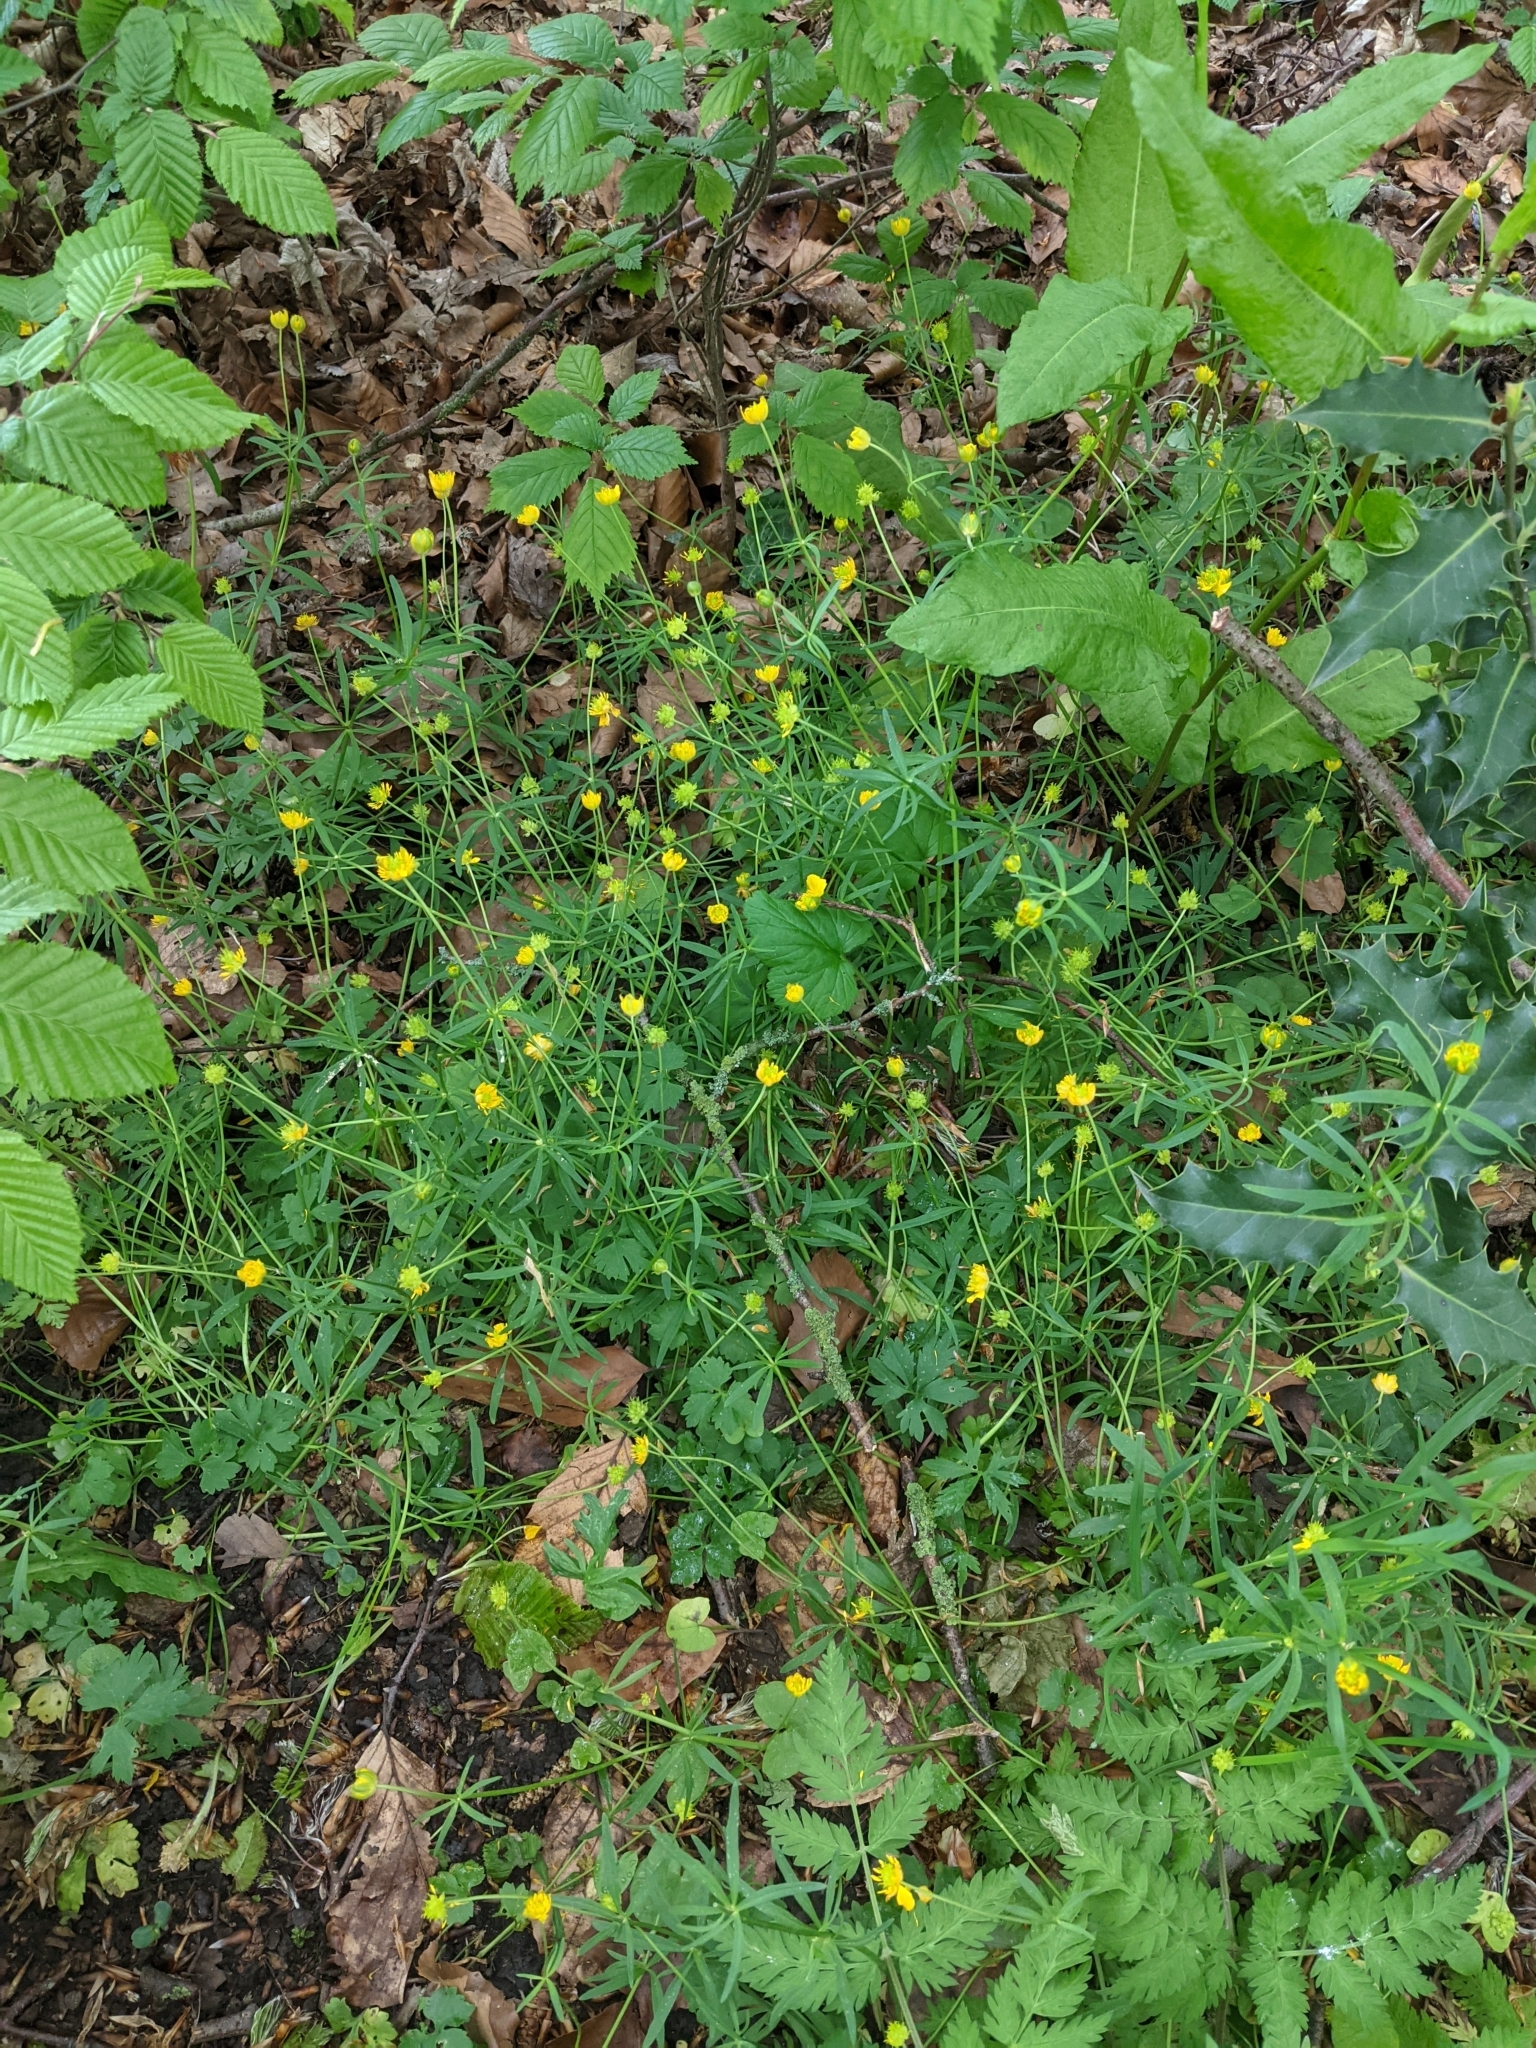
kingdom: Plantae
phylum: Tracheophyta
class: Magnoliopsida
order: Ranunculales
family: Ranunculaceae
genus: Ranunculus
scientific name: Ranunculus auricomus
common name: Goldilocks buttercup
